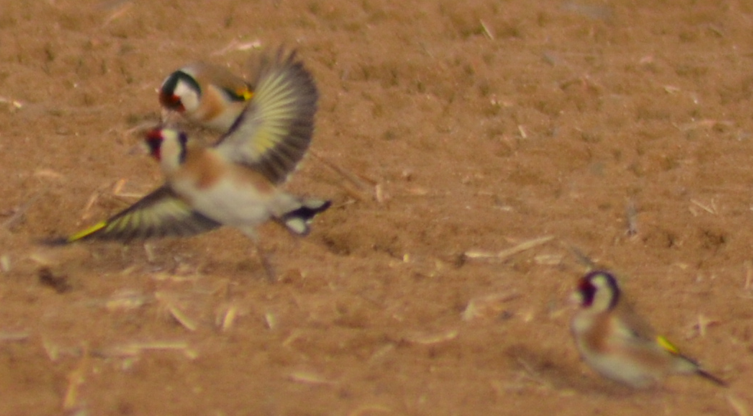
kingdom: Animalia
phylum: Chordata
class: Aves
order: Passeriformes
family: Fringillidae
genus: Carduelis
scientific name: Carduelis carduelis
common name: European goldfinch
